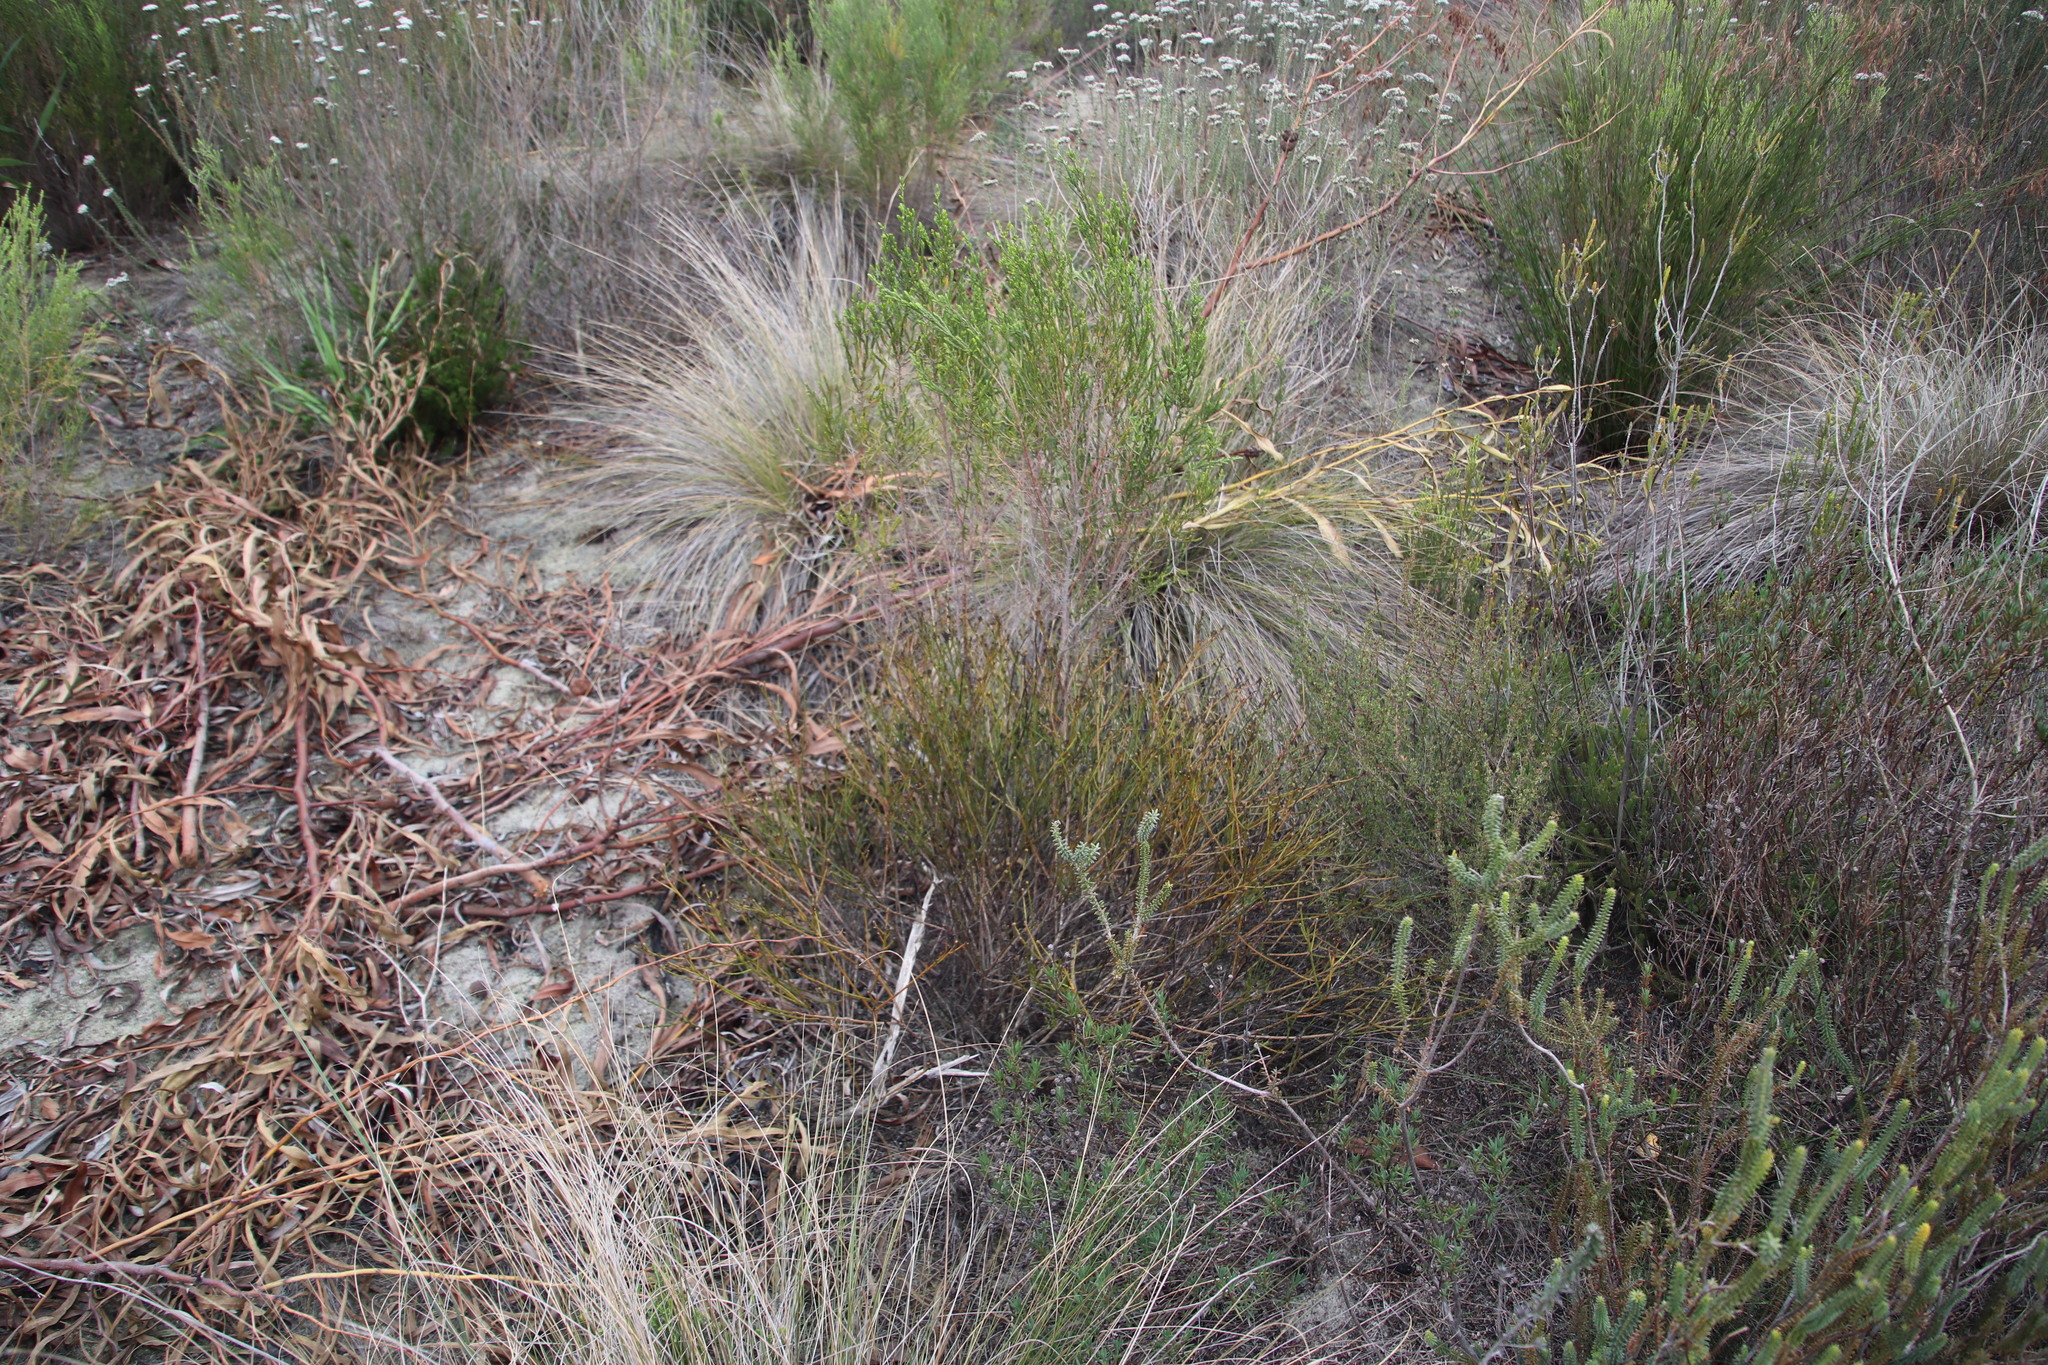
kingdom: Plantae
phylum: Tracheophyta
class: Magnoliopsida
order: Santalales
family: Thesiaceae
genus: Thesium
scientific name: Thesium aggregatum
